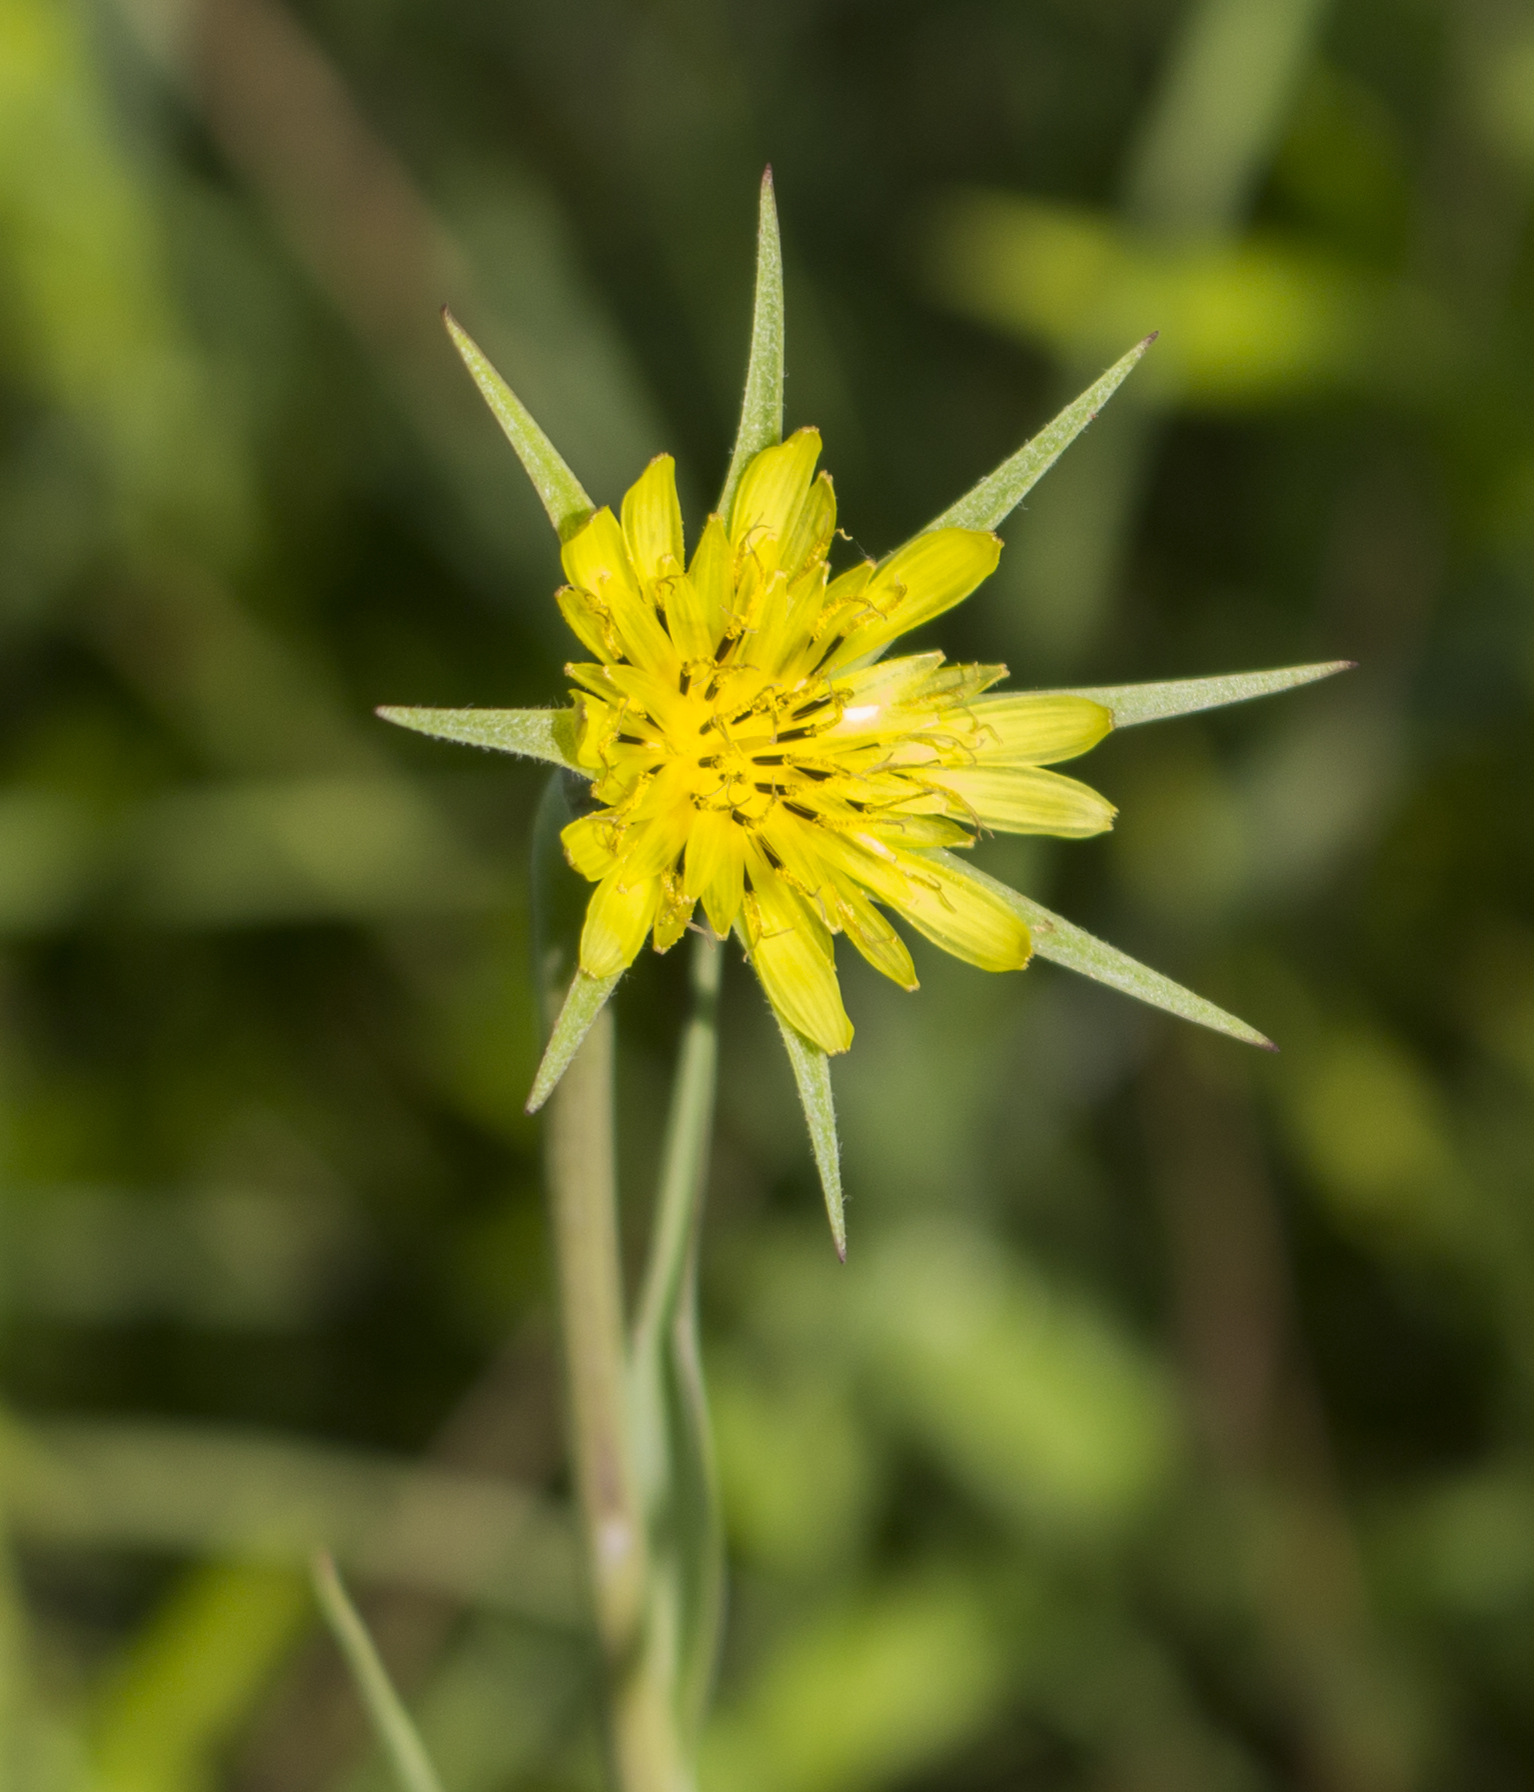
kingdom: Plantae
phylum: Tracheophyta
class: Magnoliopsida
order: Asterales
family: Asteraceae
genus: Tragopogon
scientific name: Tragopogon dubius
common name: Yellow salsify
